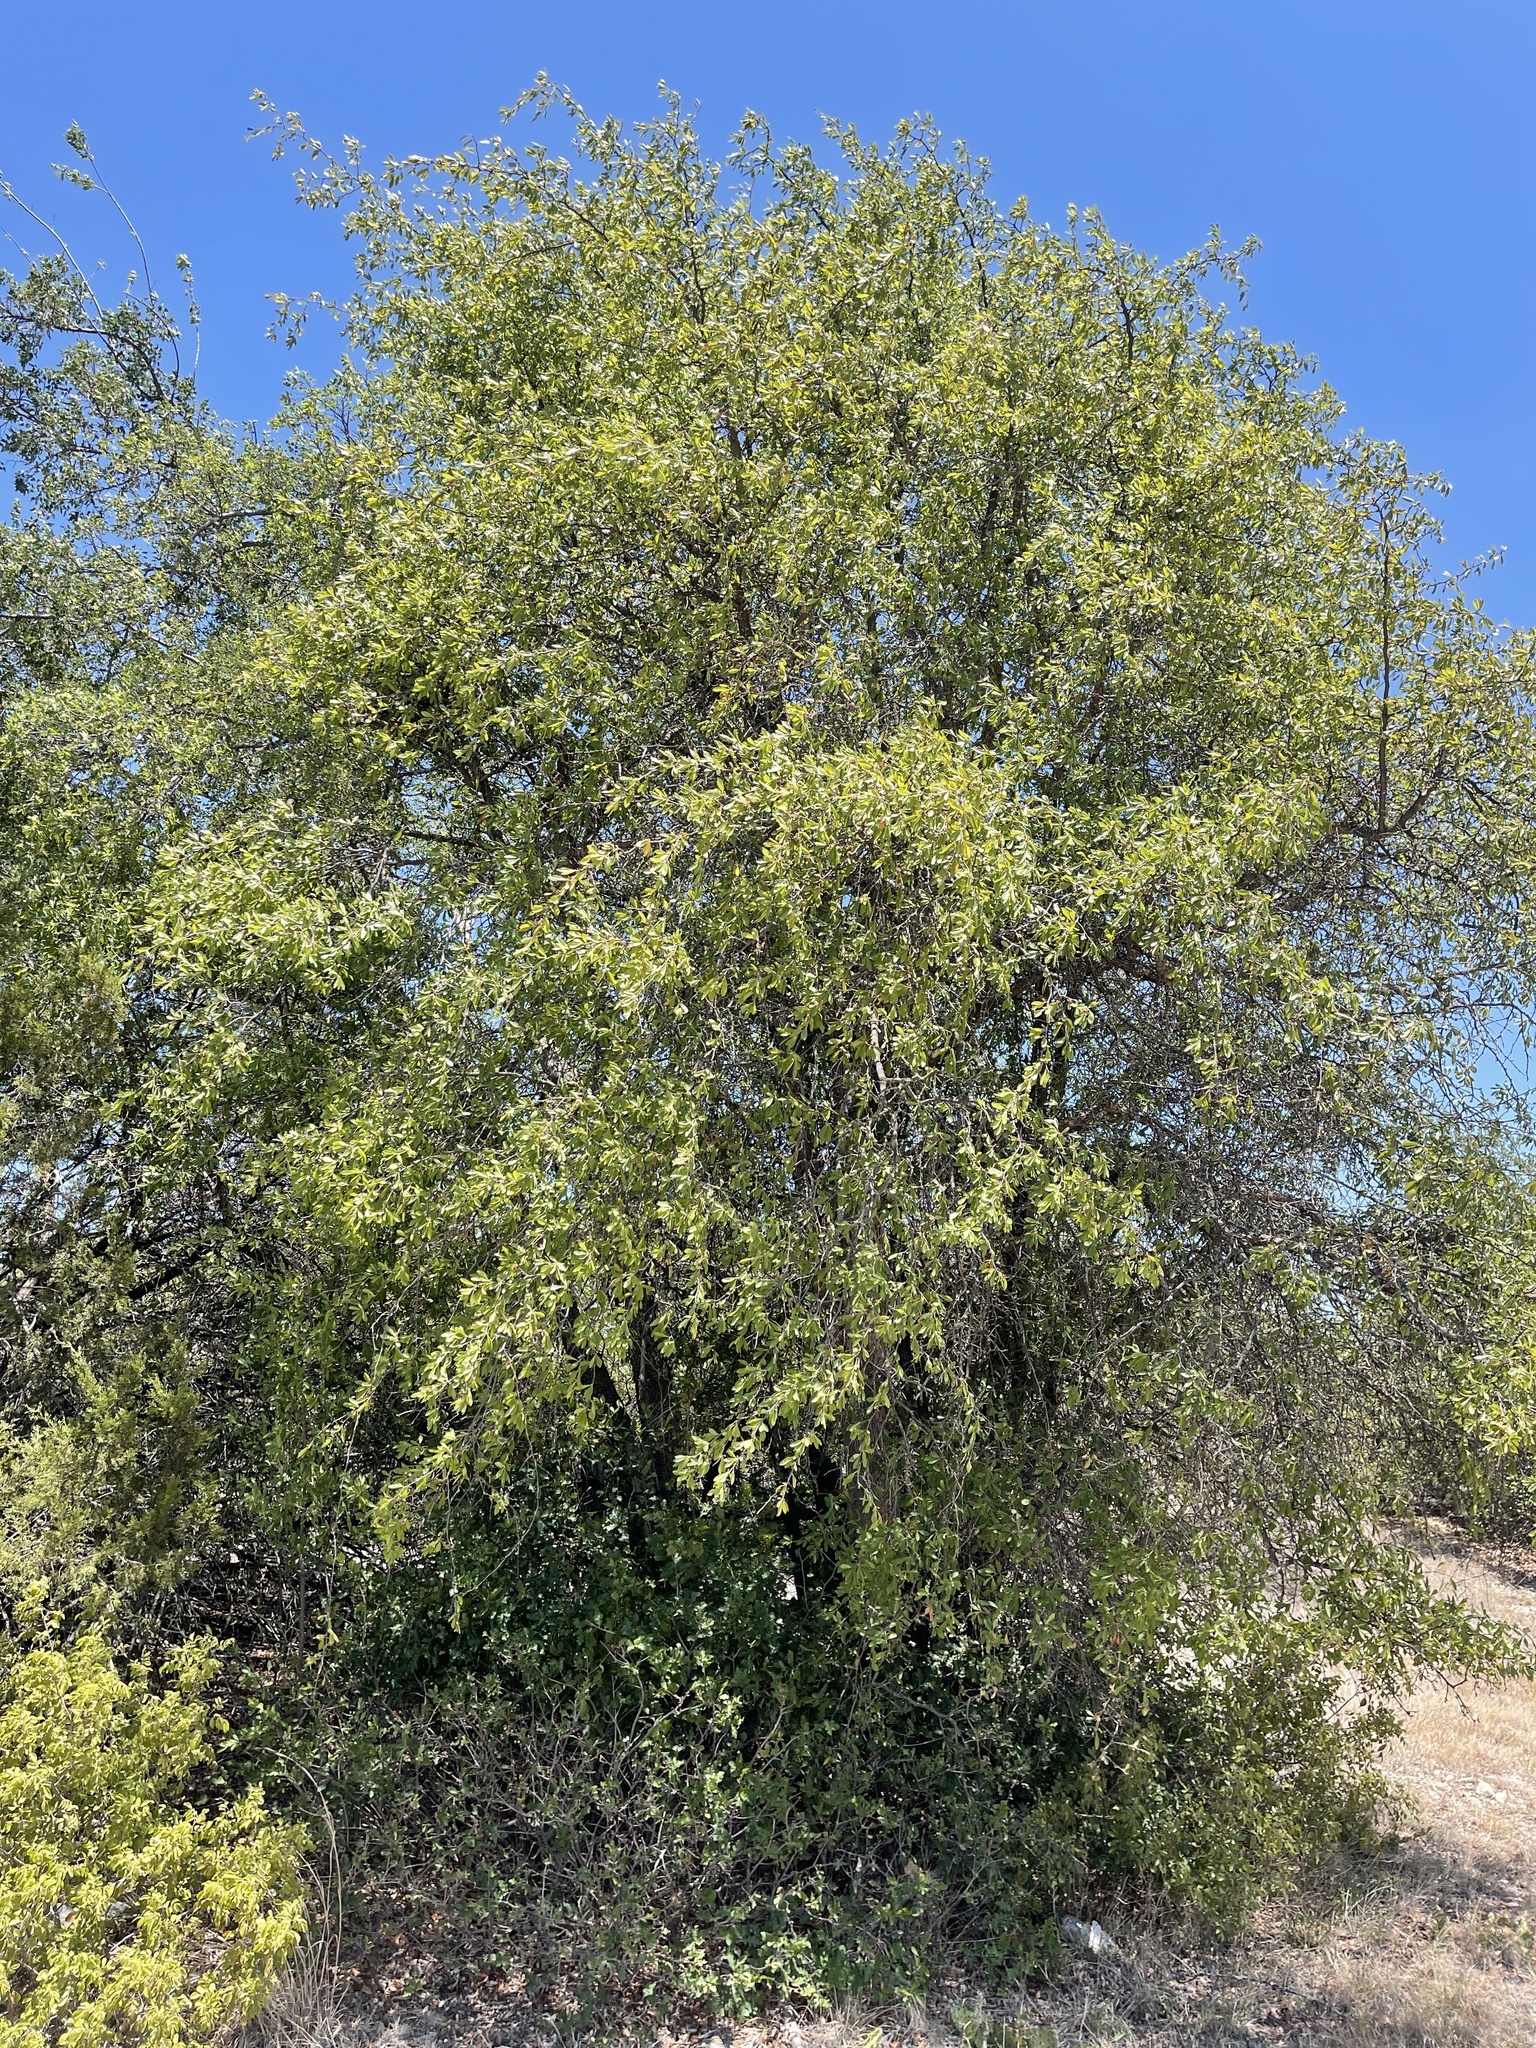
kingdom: Plantae
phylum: Tracheophyta
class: Magnoliopsida
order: Ericales
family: Sapotaceae
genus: Sideroxylon
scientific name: Sideroxylon lanuginosum
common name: Chittamwood
